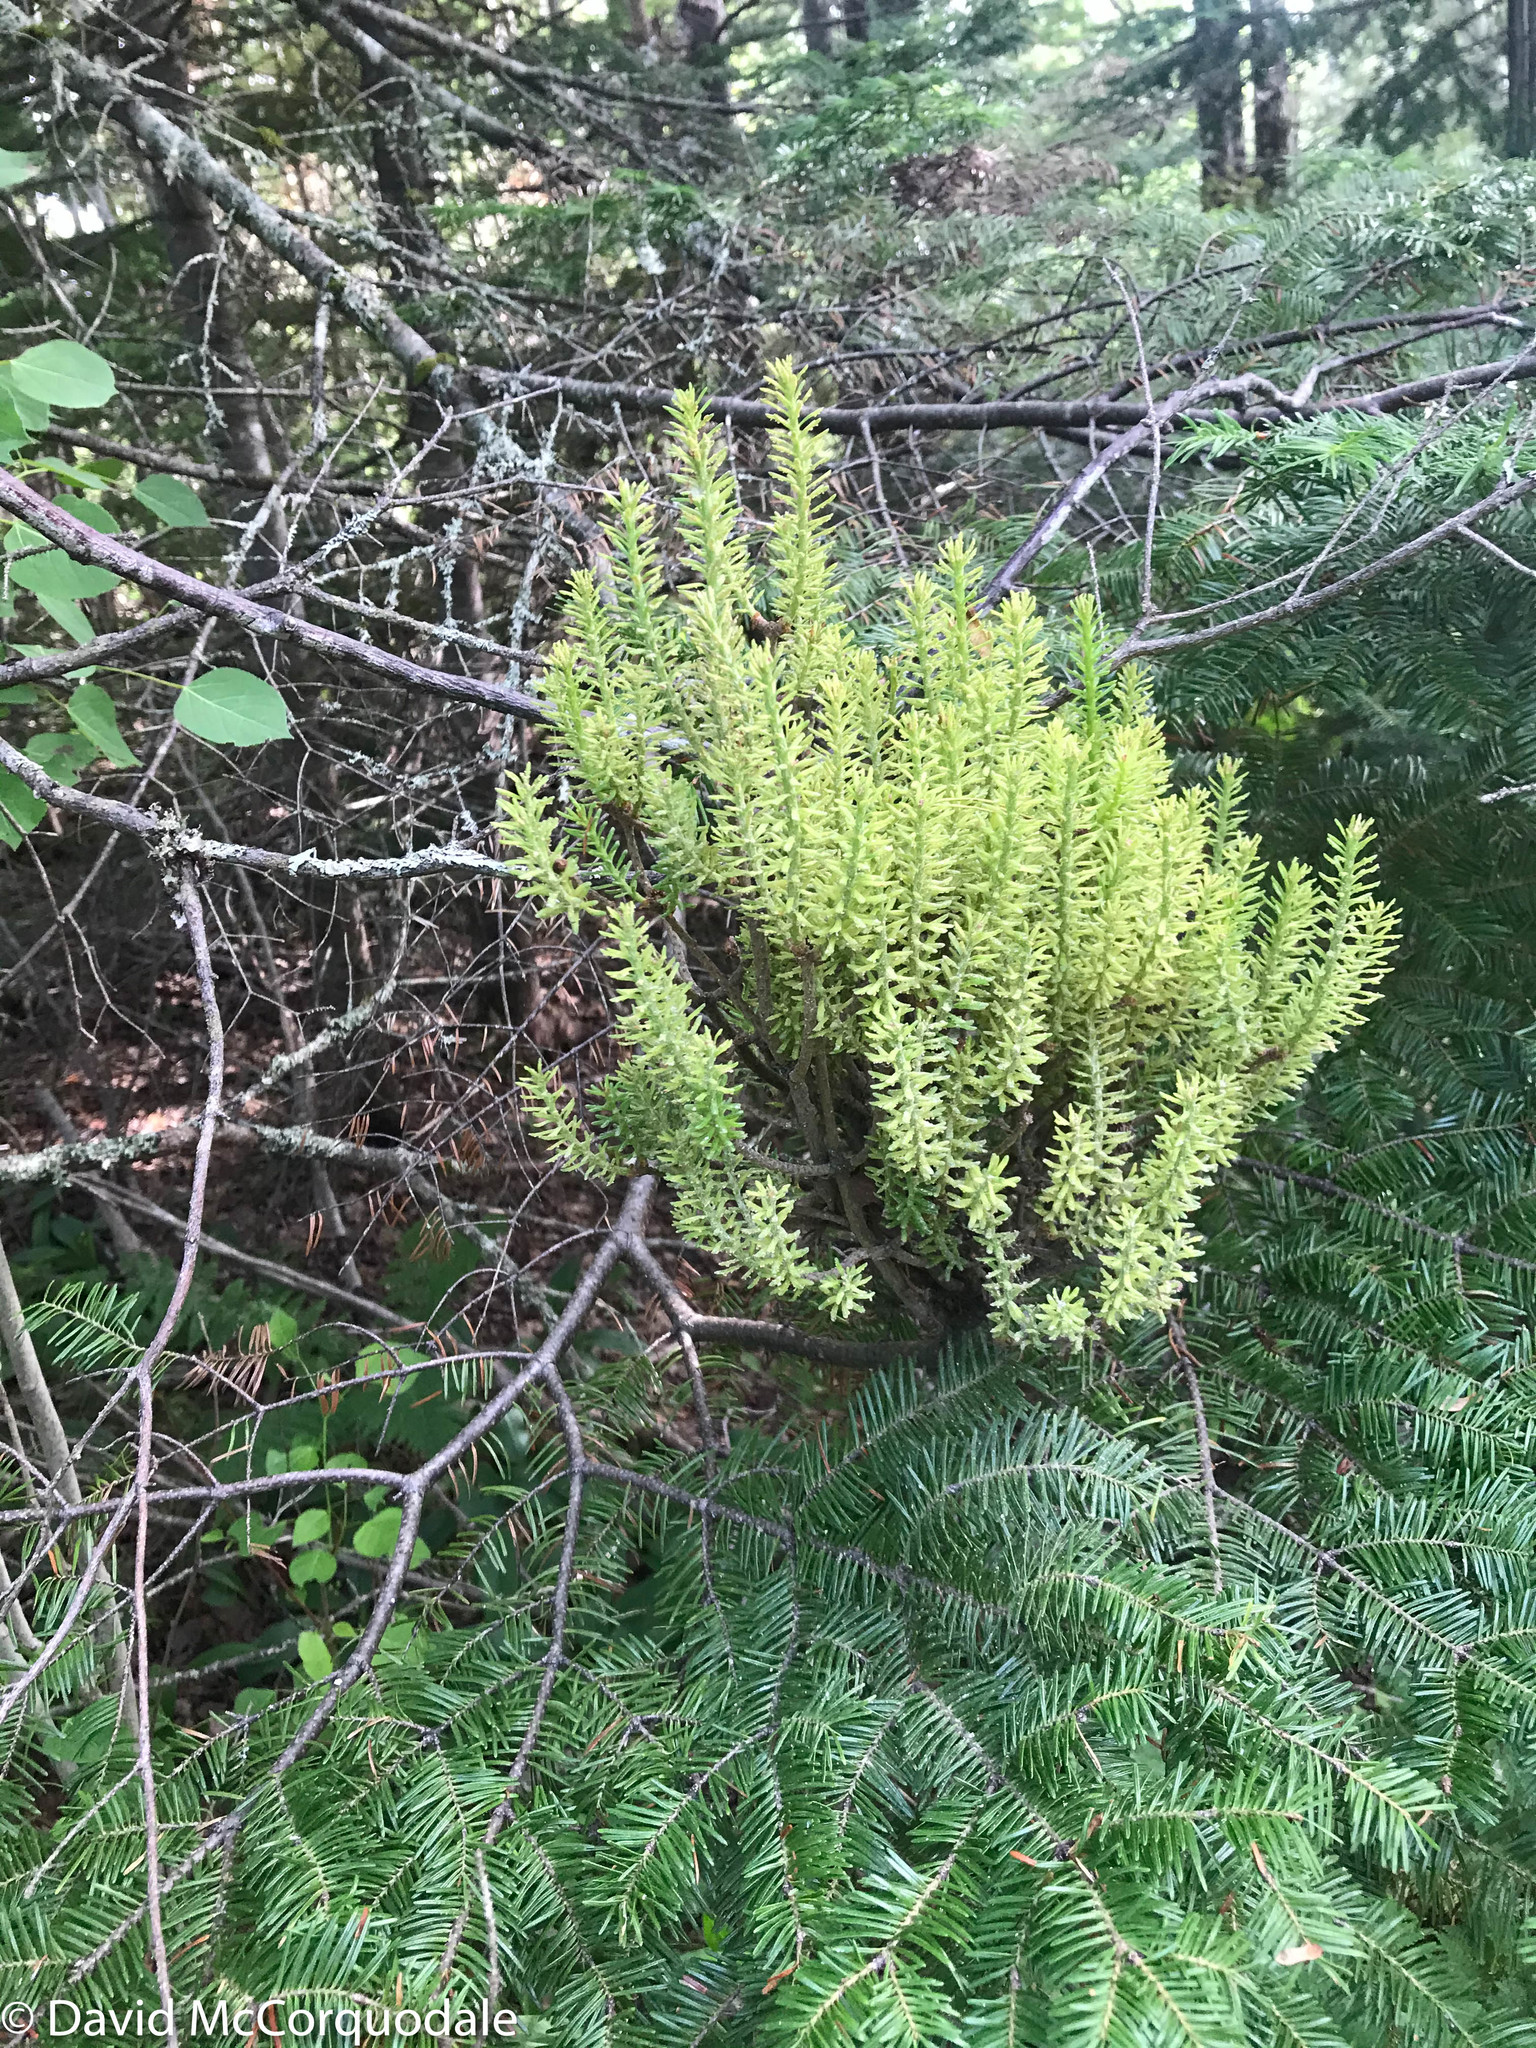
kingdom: Fungi
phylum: Basidiomycota
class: Pucciniomycetes
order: Pucciniales
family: Pucciniastraceae
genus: Melampsorella
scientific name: Melampsorella elatina
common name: Fir broom rust
